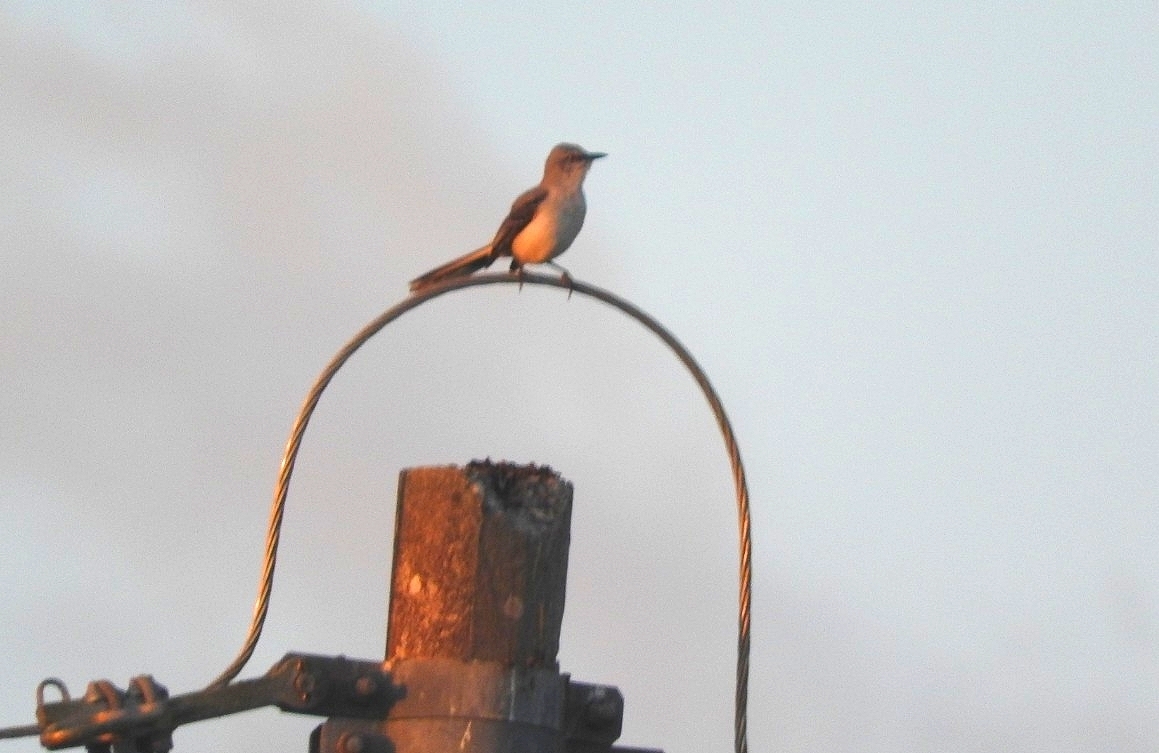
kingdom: Animalia
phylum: Chordata
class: Aves
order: Passeriformes
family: Mimidae
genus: Mimus
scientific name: Mimus gilvus
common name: Tropical mockingbird
